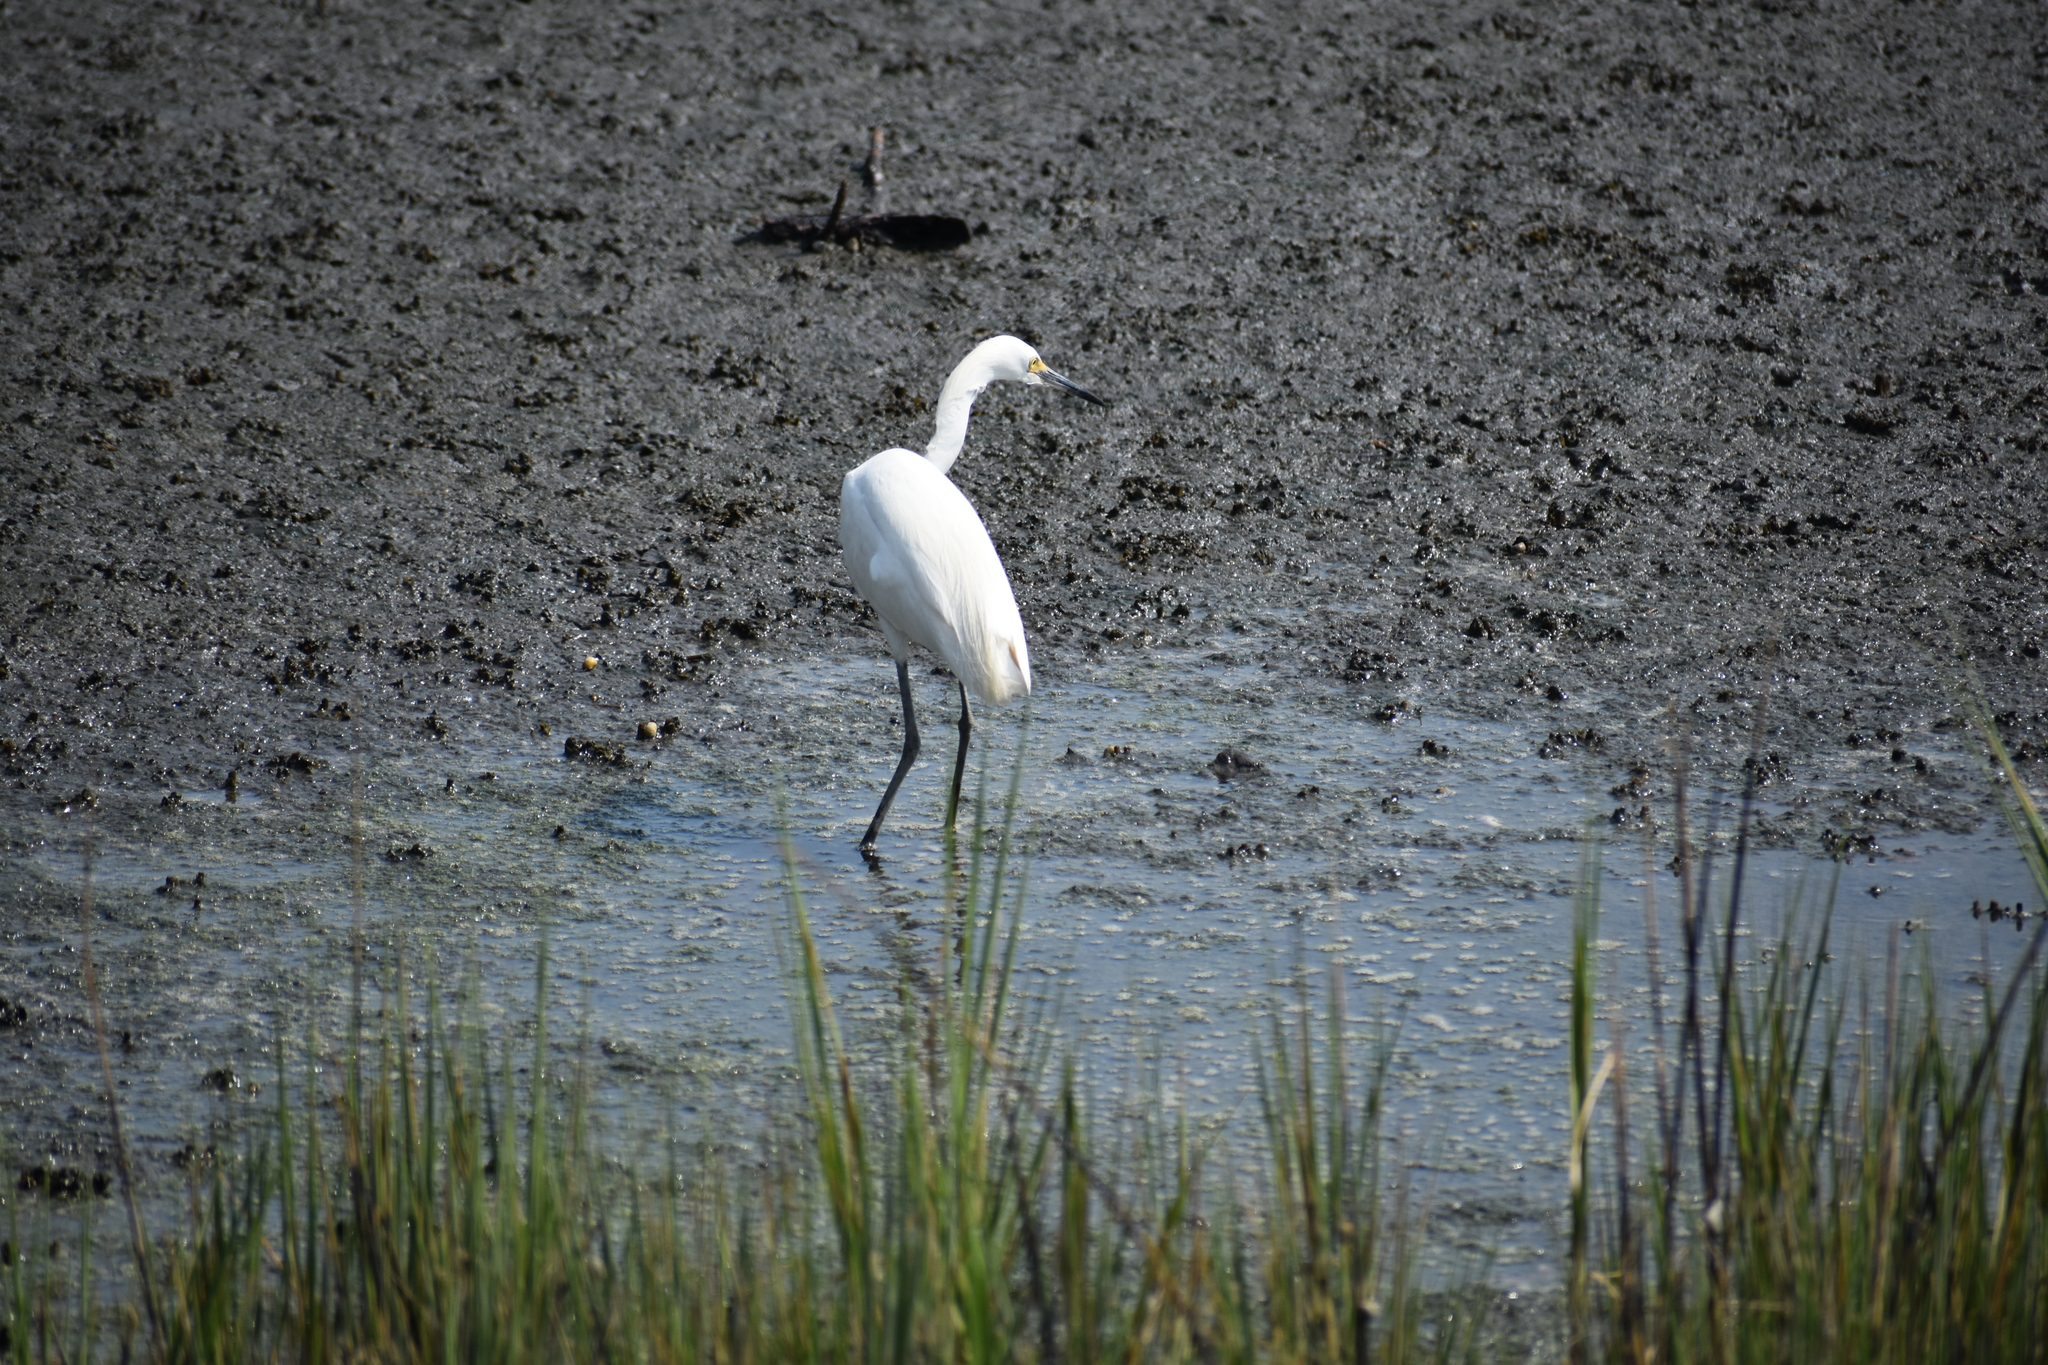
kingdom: Animalia
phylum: Chordata
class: Aves
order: Pelecaniformes
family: Ardeidae
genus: Egretta
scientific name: Egretta thula
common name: Snowy egret
